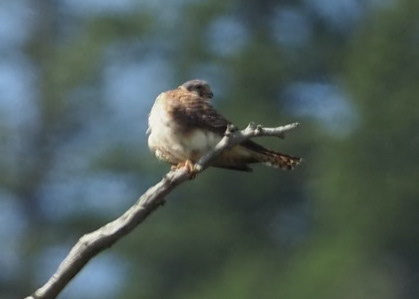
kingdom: Animalia
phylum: Chordata
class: Aves
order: Falconiformes
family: Falconidae
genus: Falco
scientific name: Falco sparverius
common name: American kestrel
